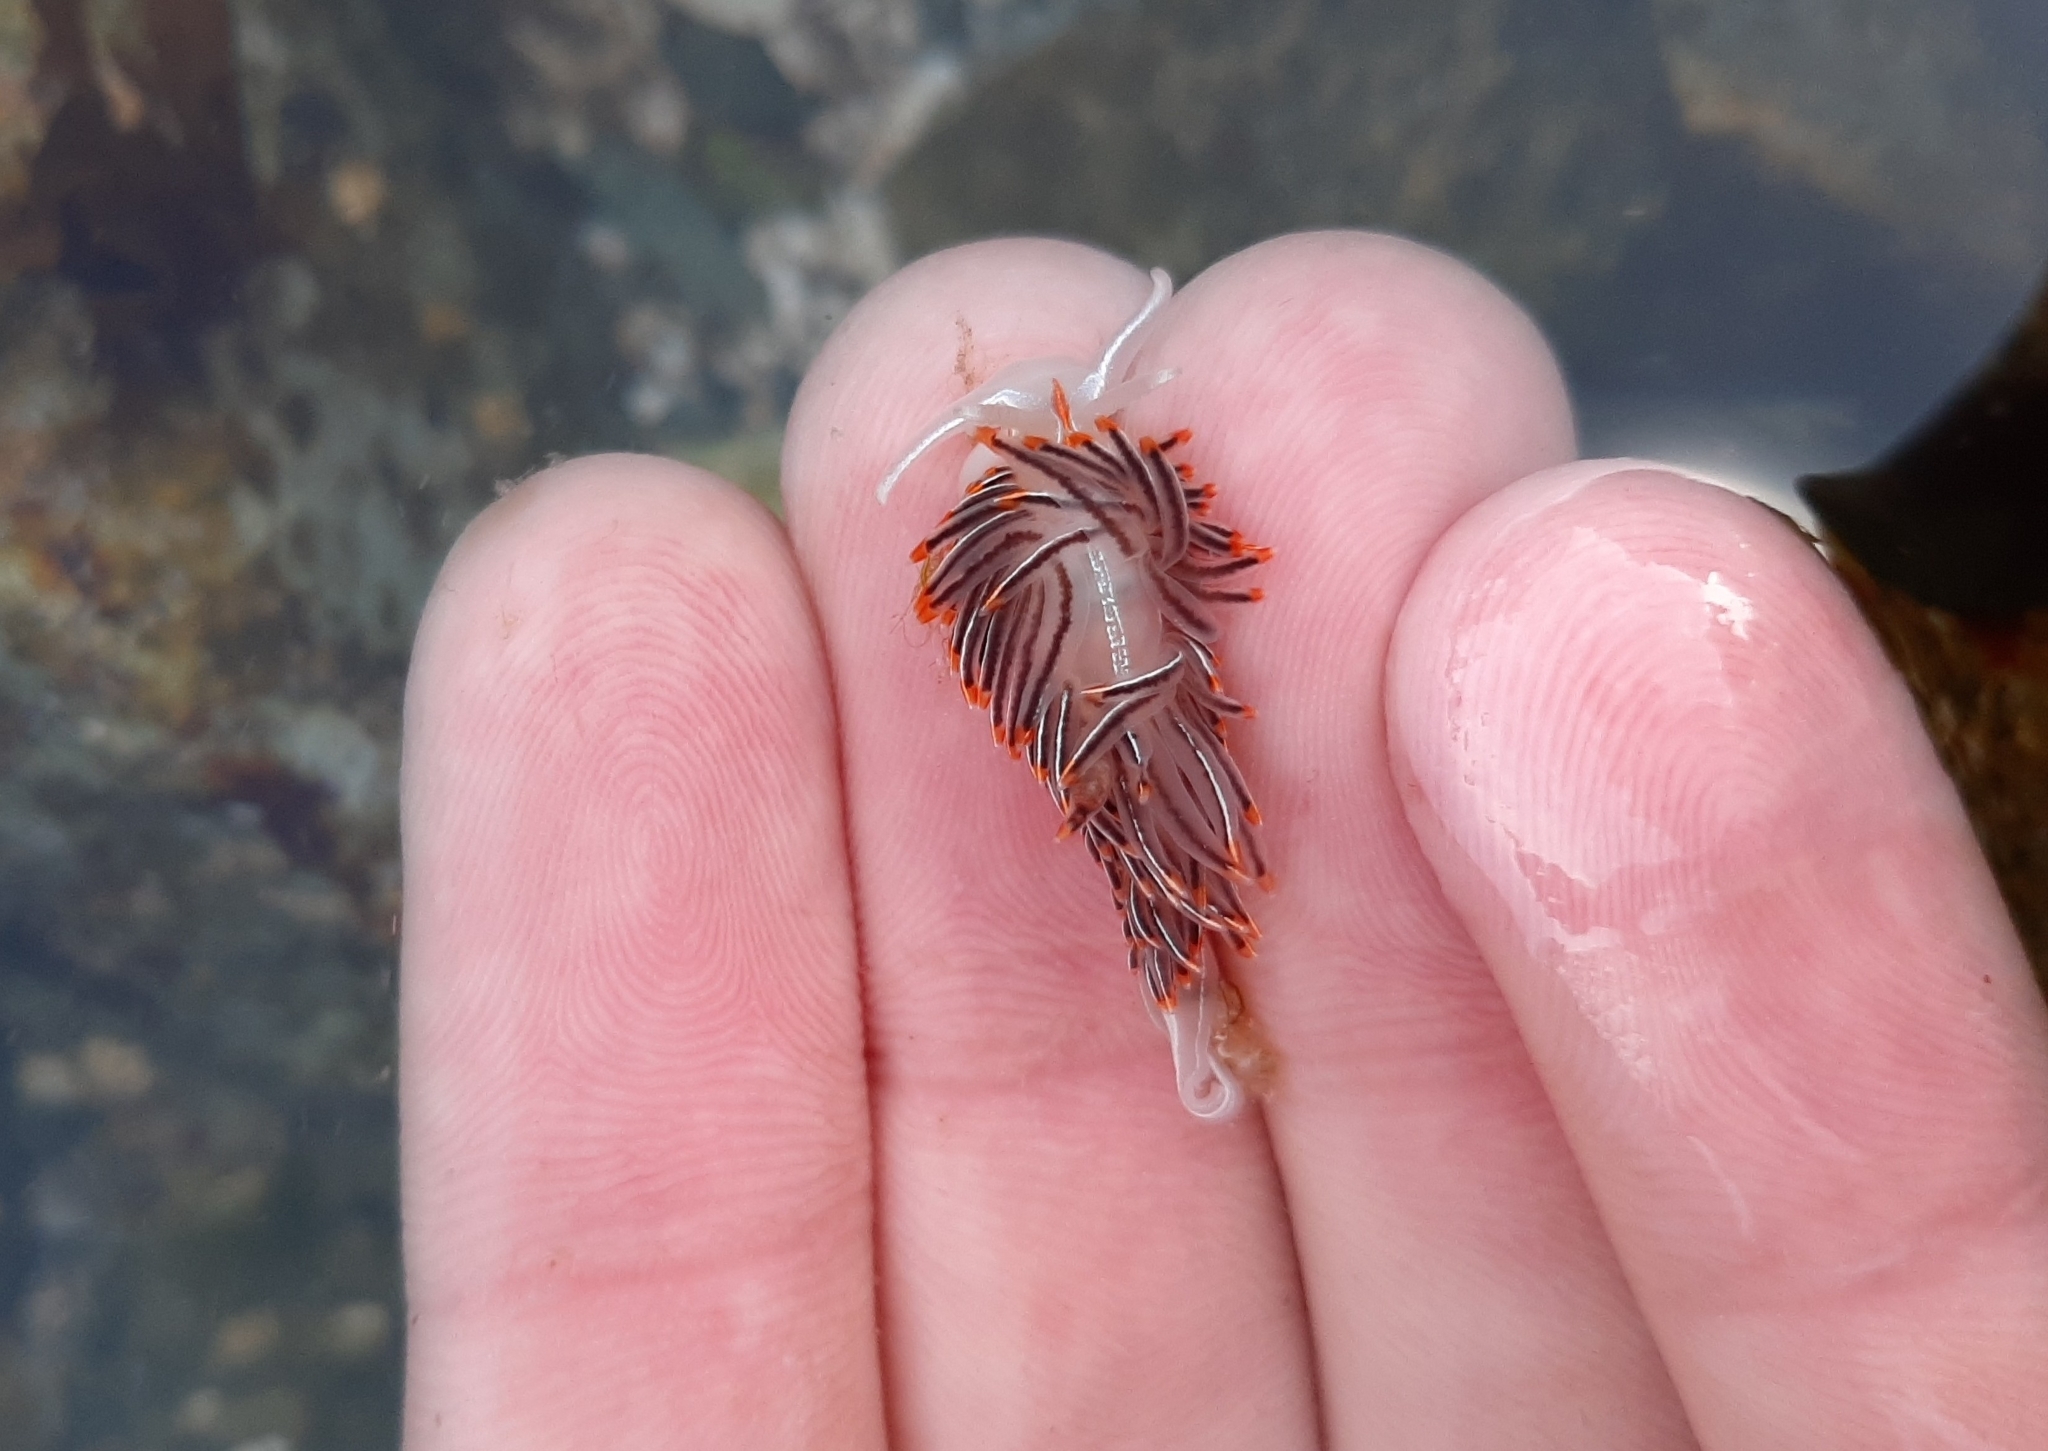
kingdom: Animalia
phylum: Mollusca
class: Gastropoda
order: Nudibranchia
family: Myrrhinidae
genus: Hermissenda
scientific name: Hermissenda crassicornis
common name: Hermissenda
